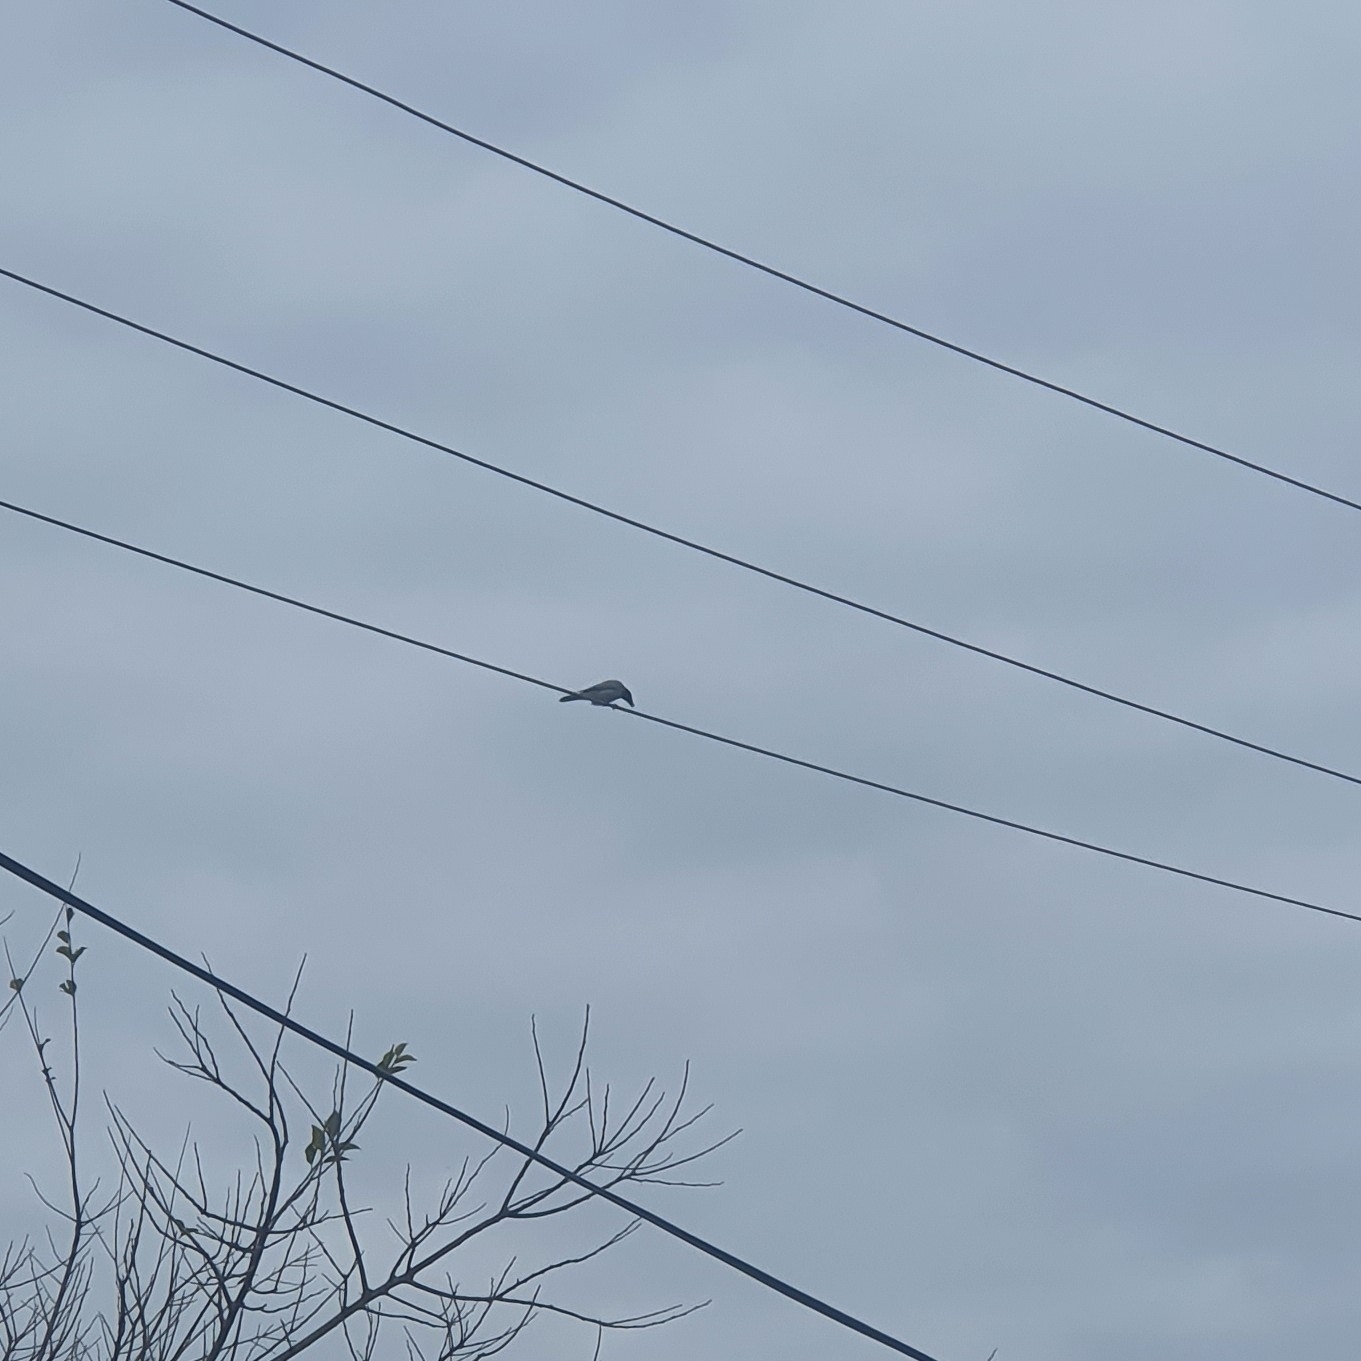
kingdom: Animalia
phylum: Chordata
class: Aves
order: Passeriformes
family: Campephagidae
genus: Coracina
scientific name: Coracina novaehollandiae
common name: Black-faced cuckooshrike
